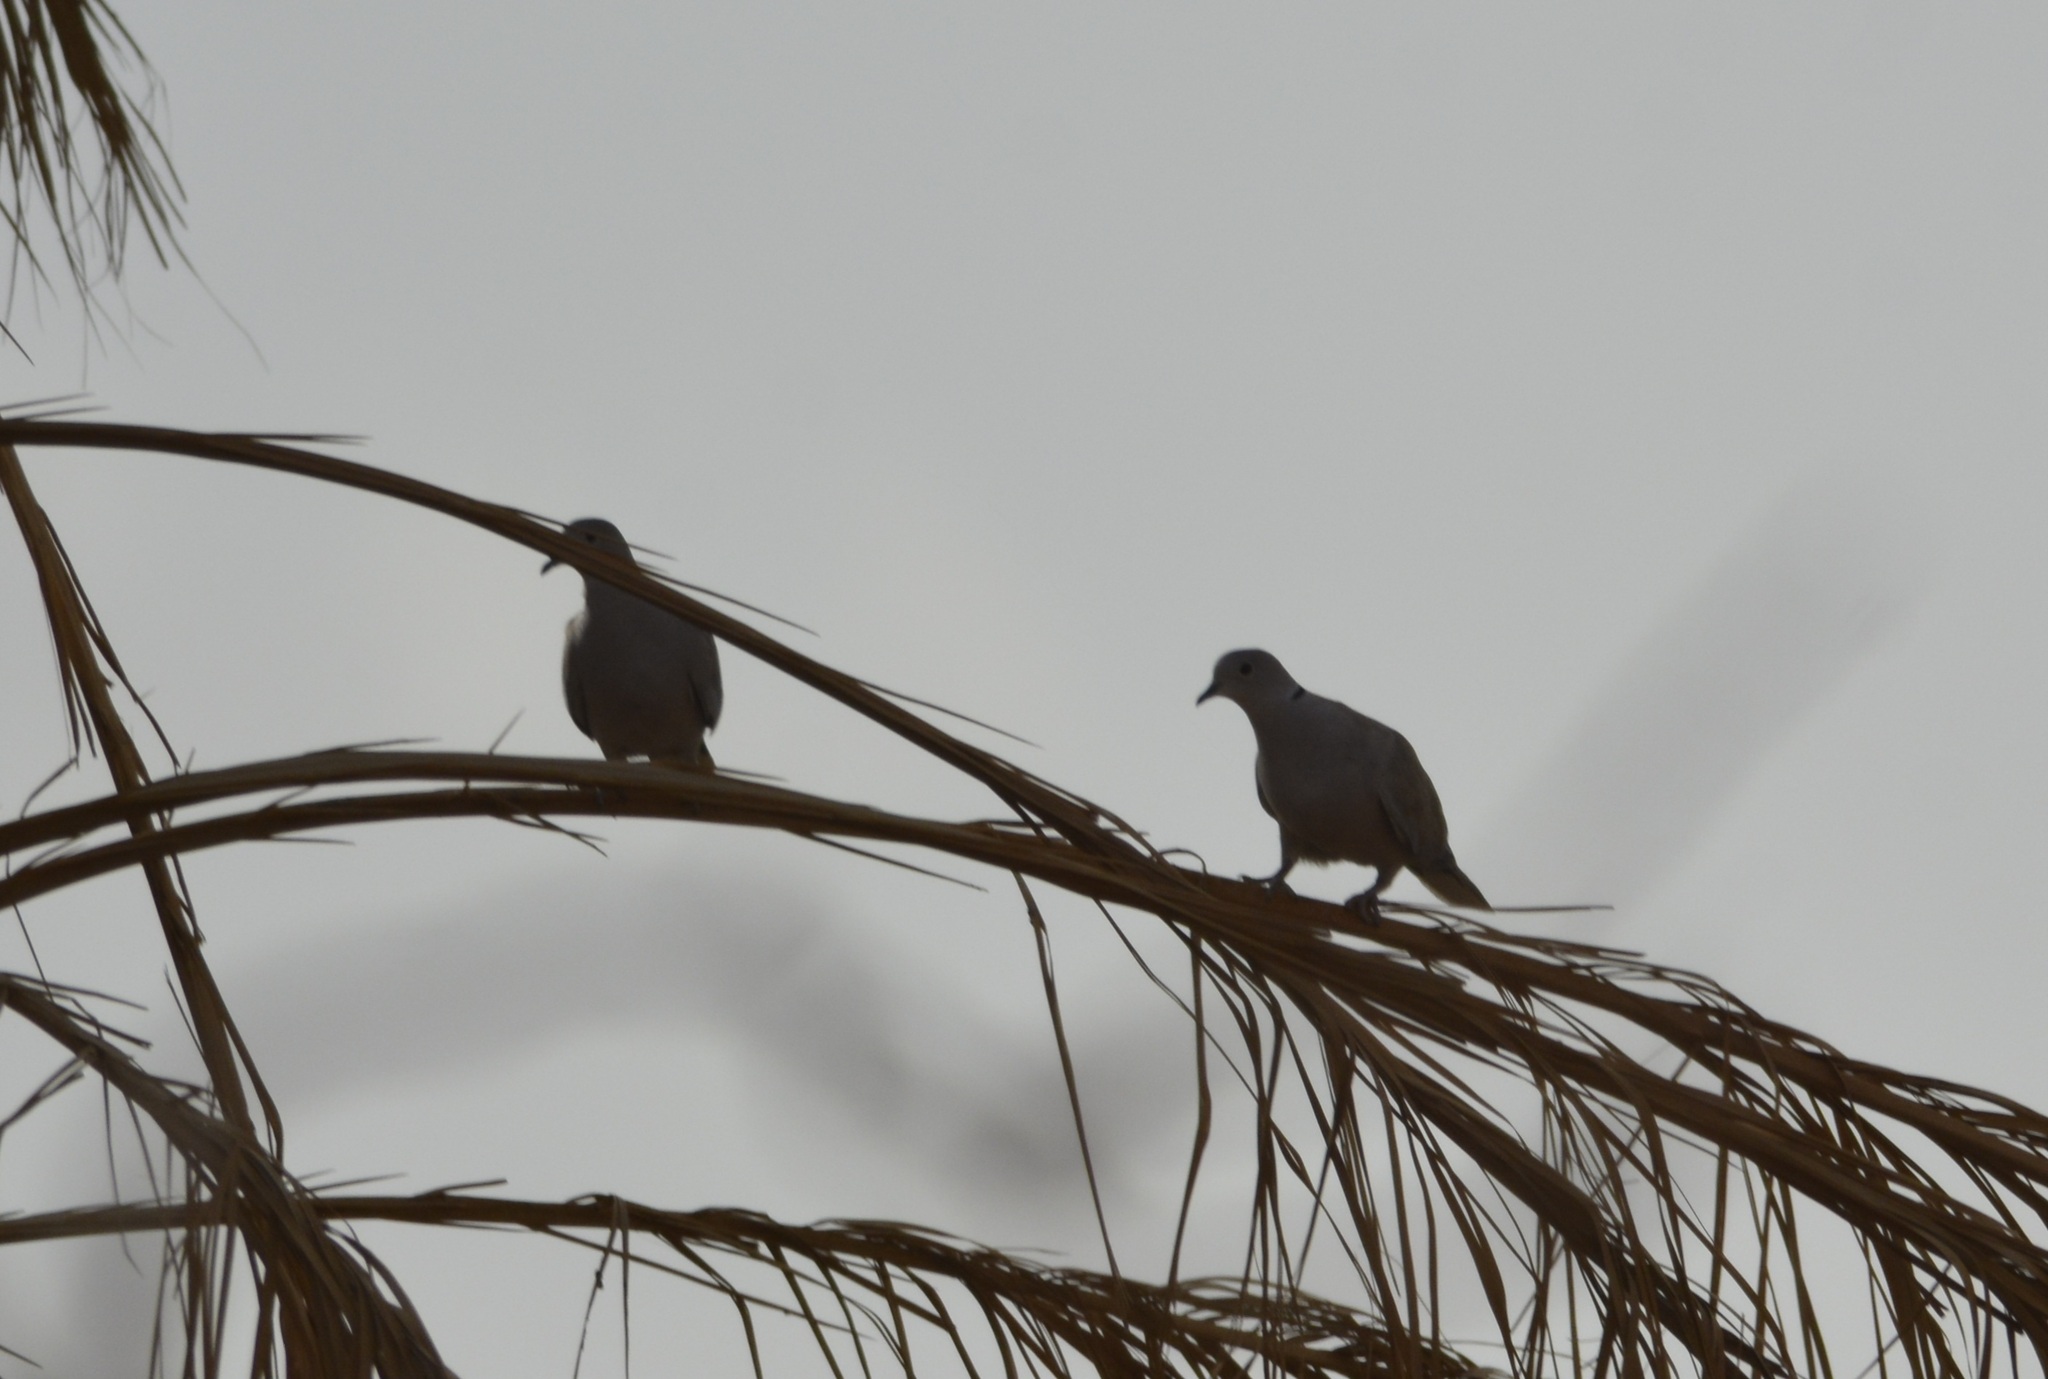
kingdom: Animalia
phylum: Chordata
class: Aves
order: Columbiformes
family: Columbidae
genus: Streptopelia
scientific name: Streptopelia decaocto
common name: Eurasian collared dove
